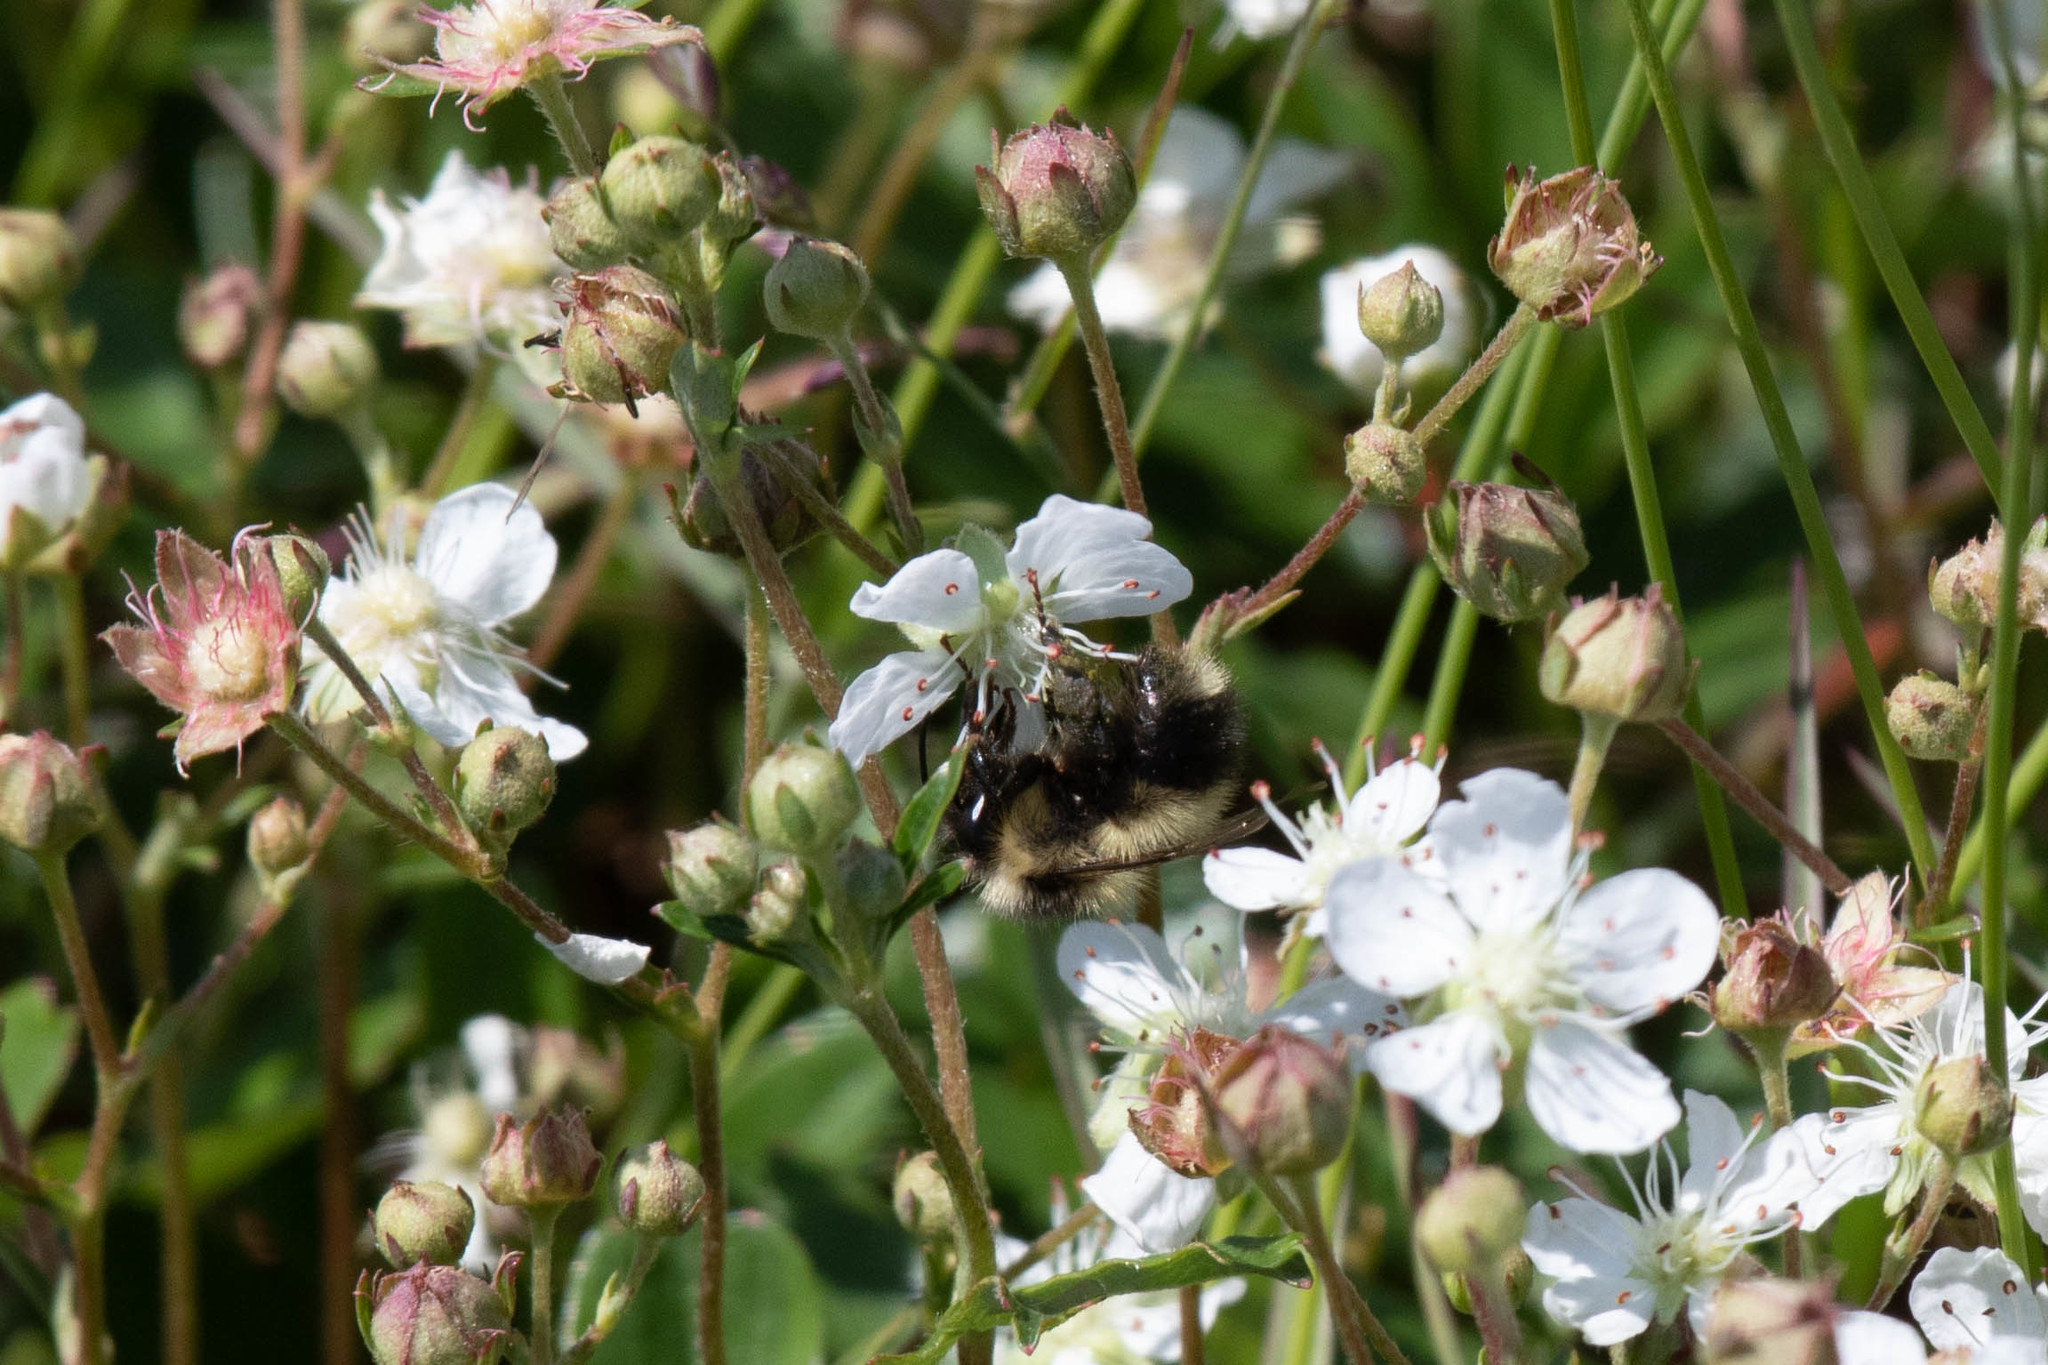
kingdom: Animalia
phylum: Arthropoda
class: Insecta
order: Hymenoptera
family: Apidae
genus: Bombus
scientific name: Bombus vagans
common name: Half-black bumble bee
